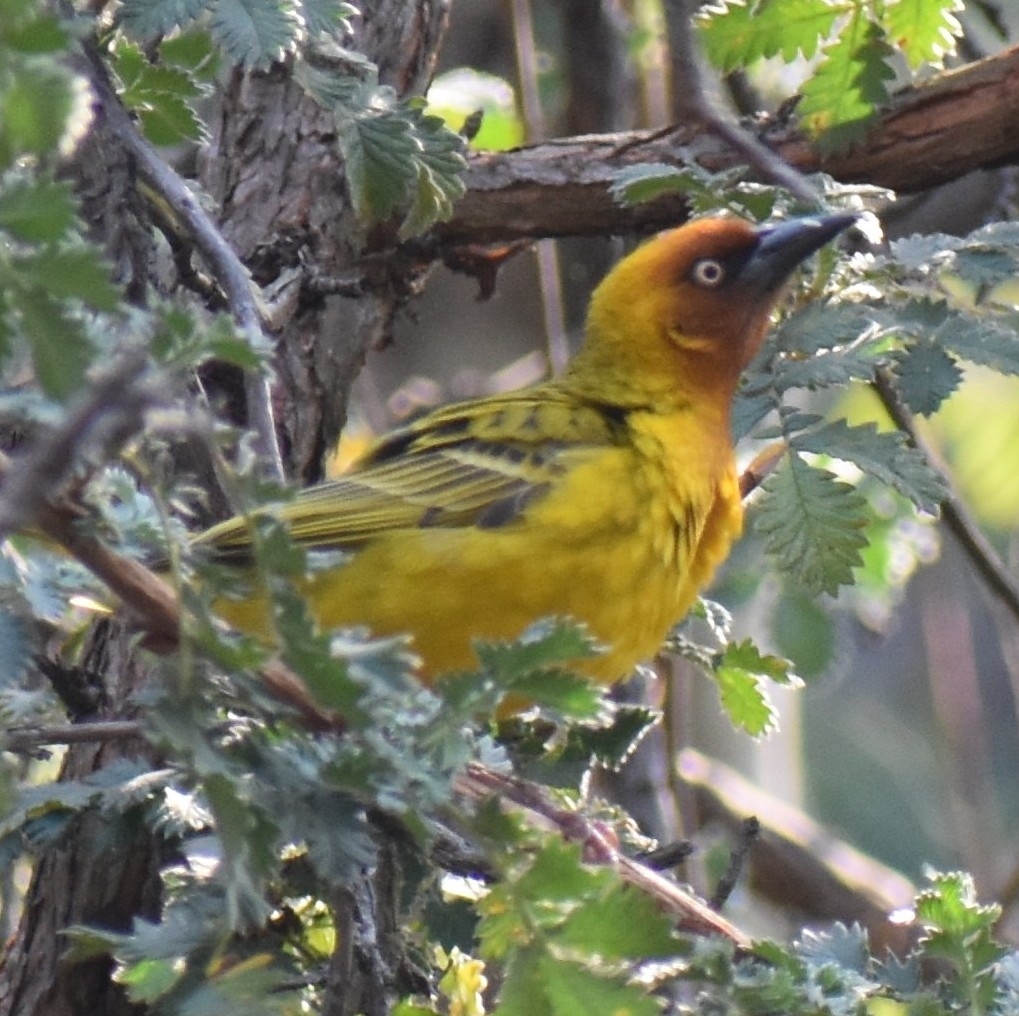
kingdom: Animalia
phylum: Chordata
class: Aves
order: Passeriformes
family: Ploceidae
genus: Ploceus
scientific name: Ploceus capensis
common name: Cape weaver
